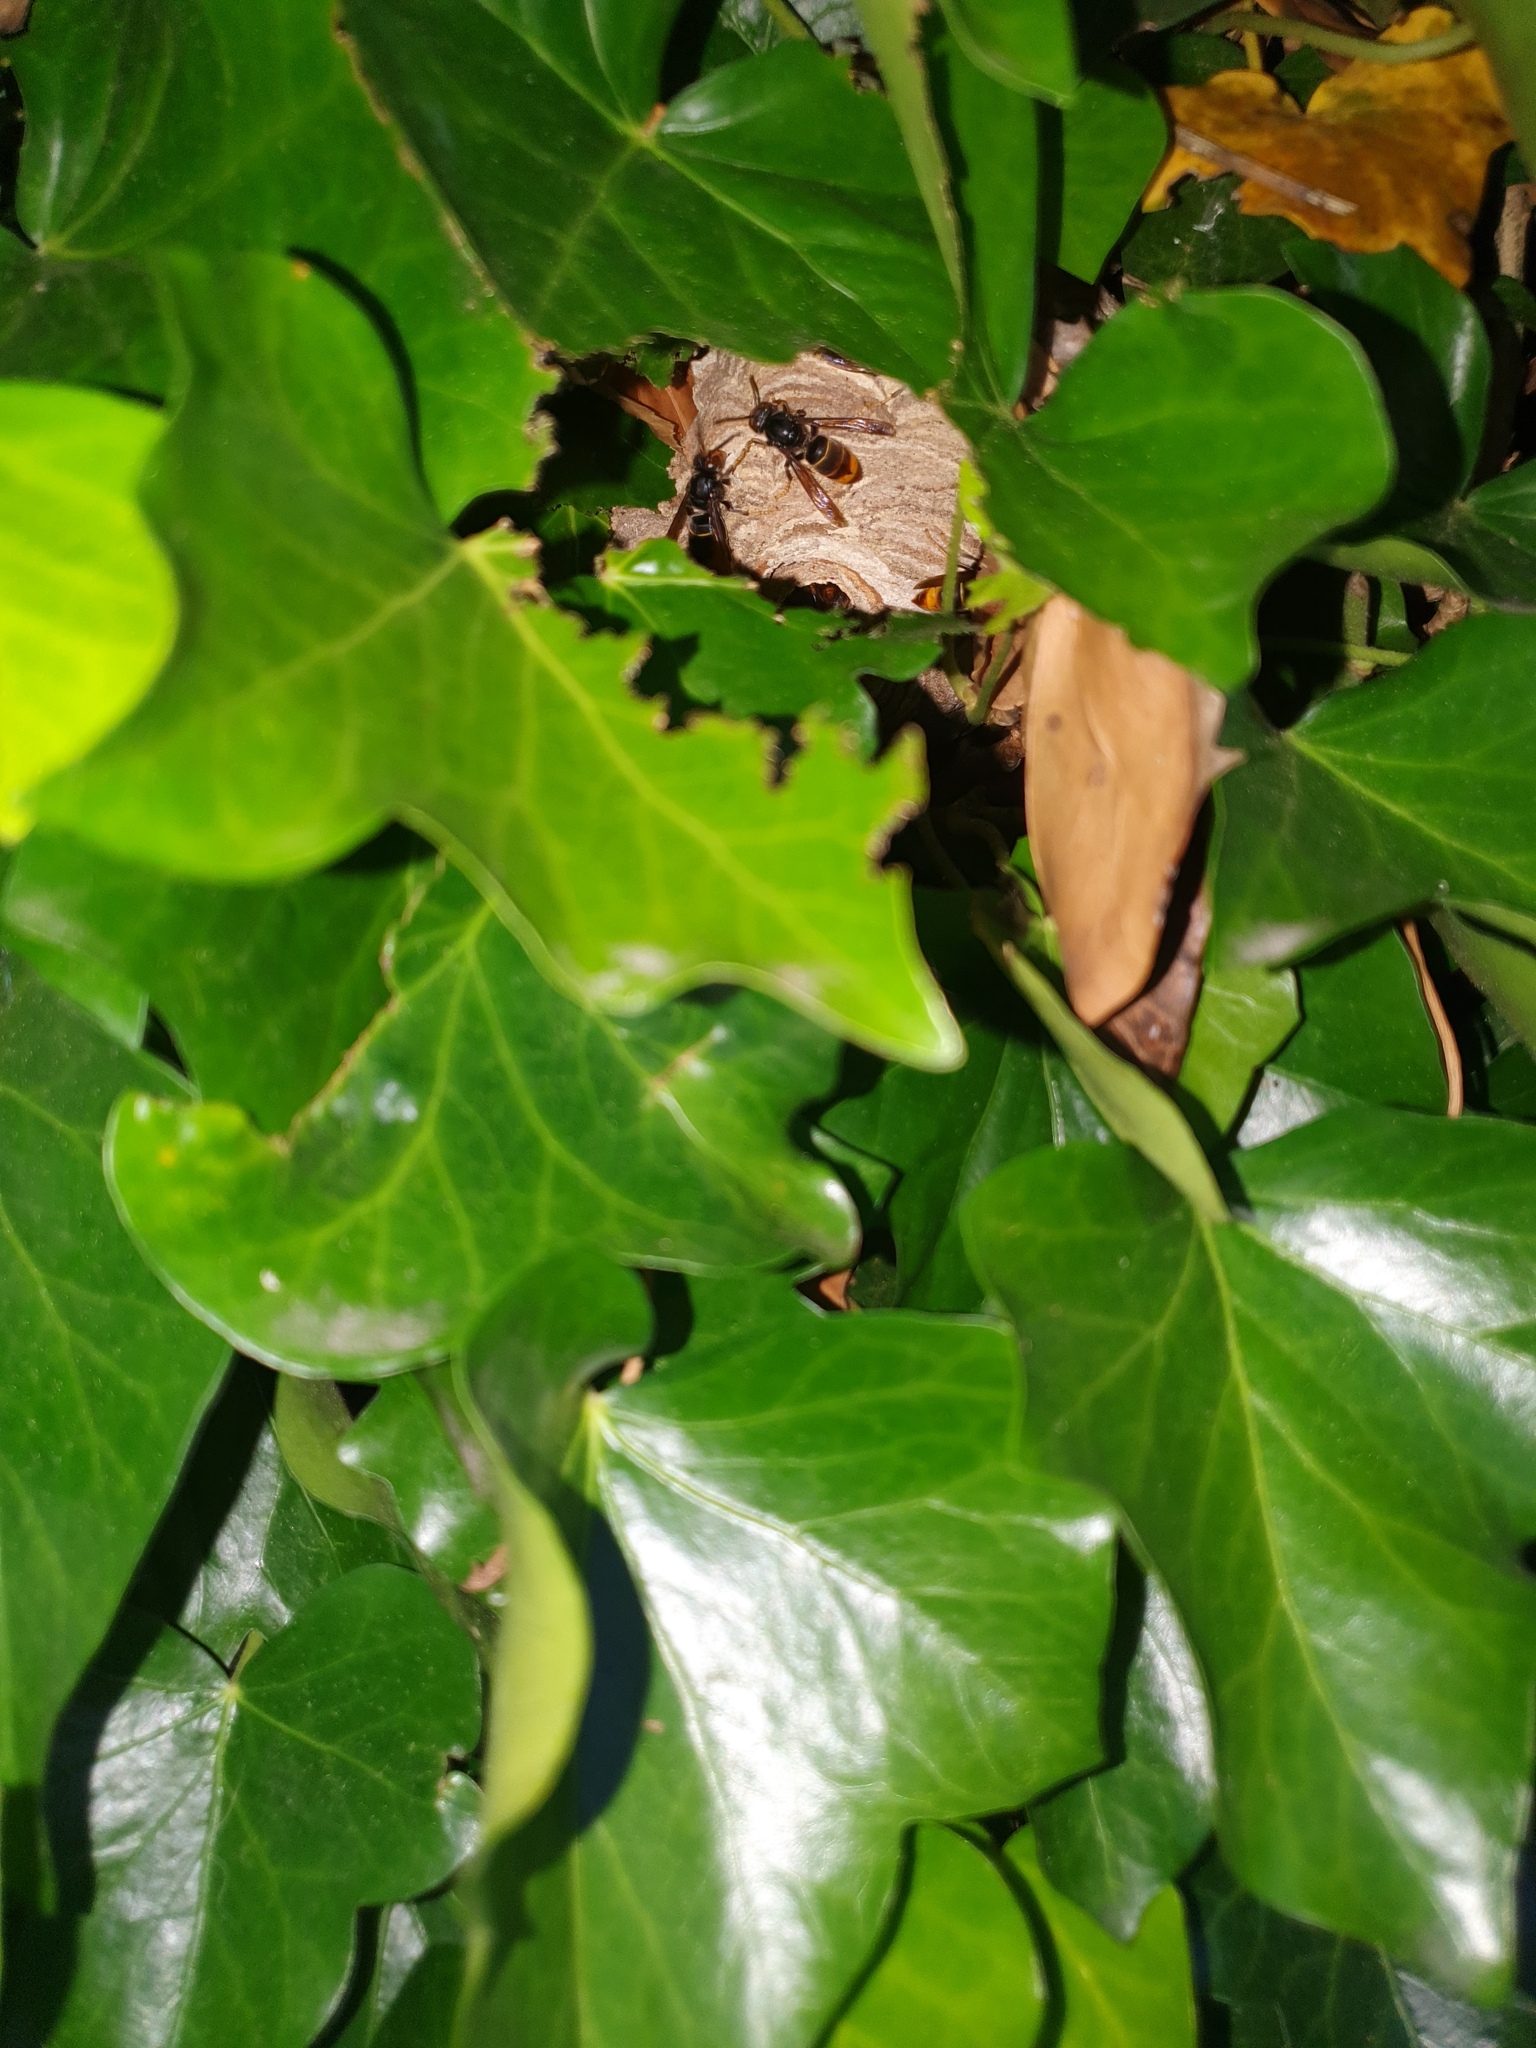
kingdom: Animalia
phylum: Arthropoda
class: Insecta
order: Hymenoptera
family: Vespidae
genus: Vespa
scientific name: Vespa velutina
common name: Asian hornet
